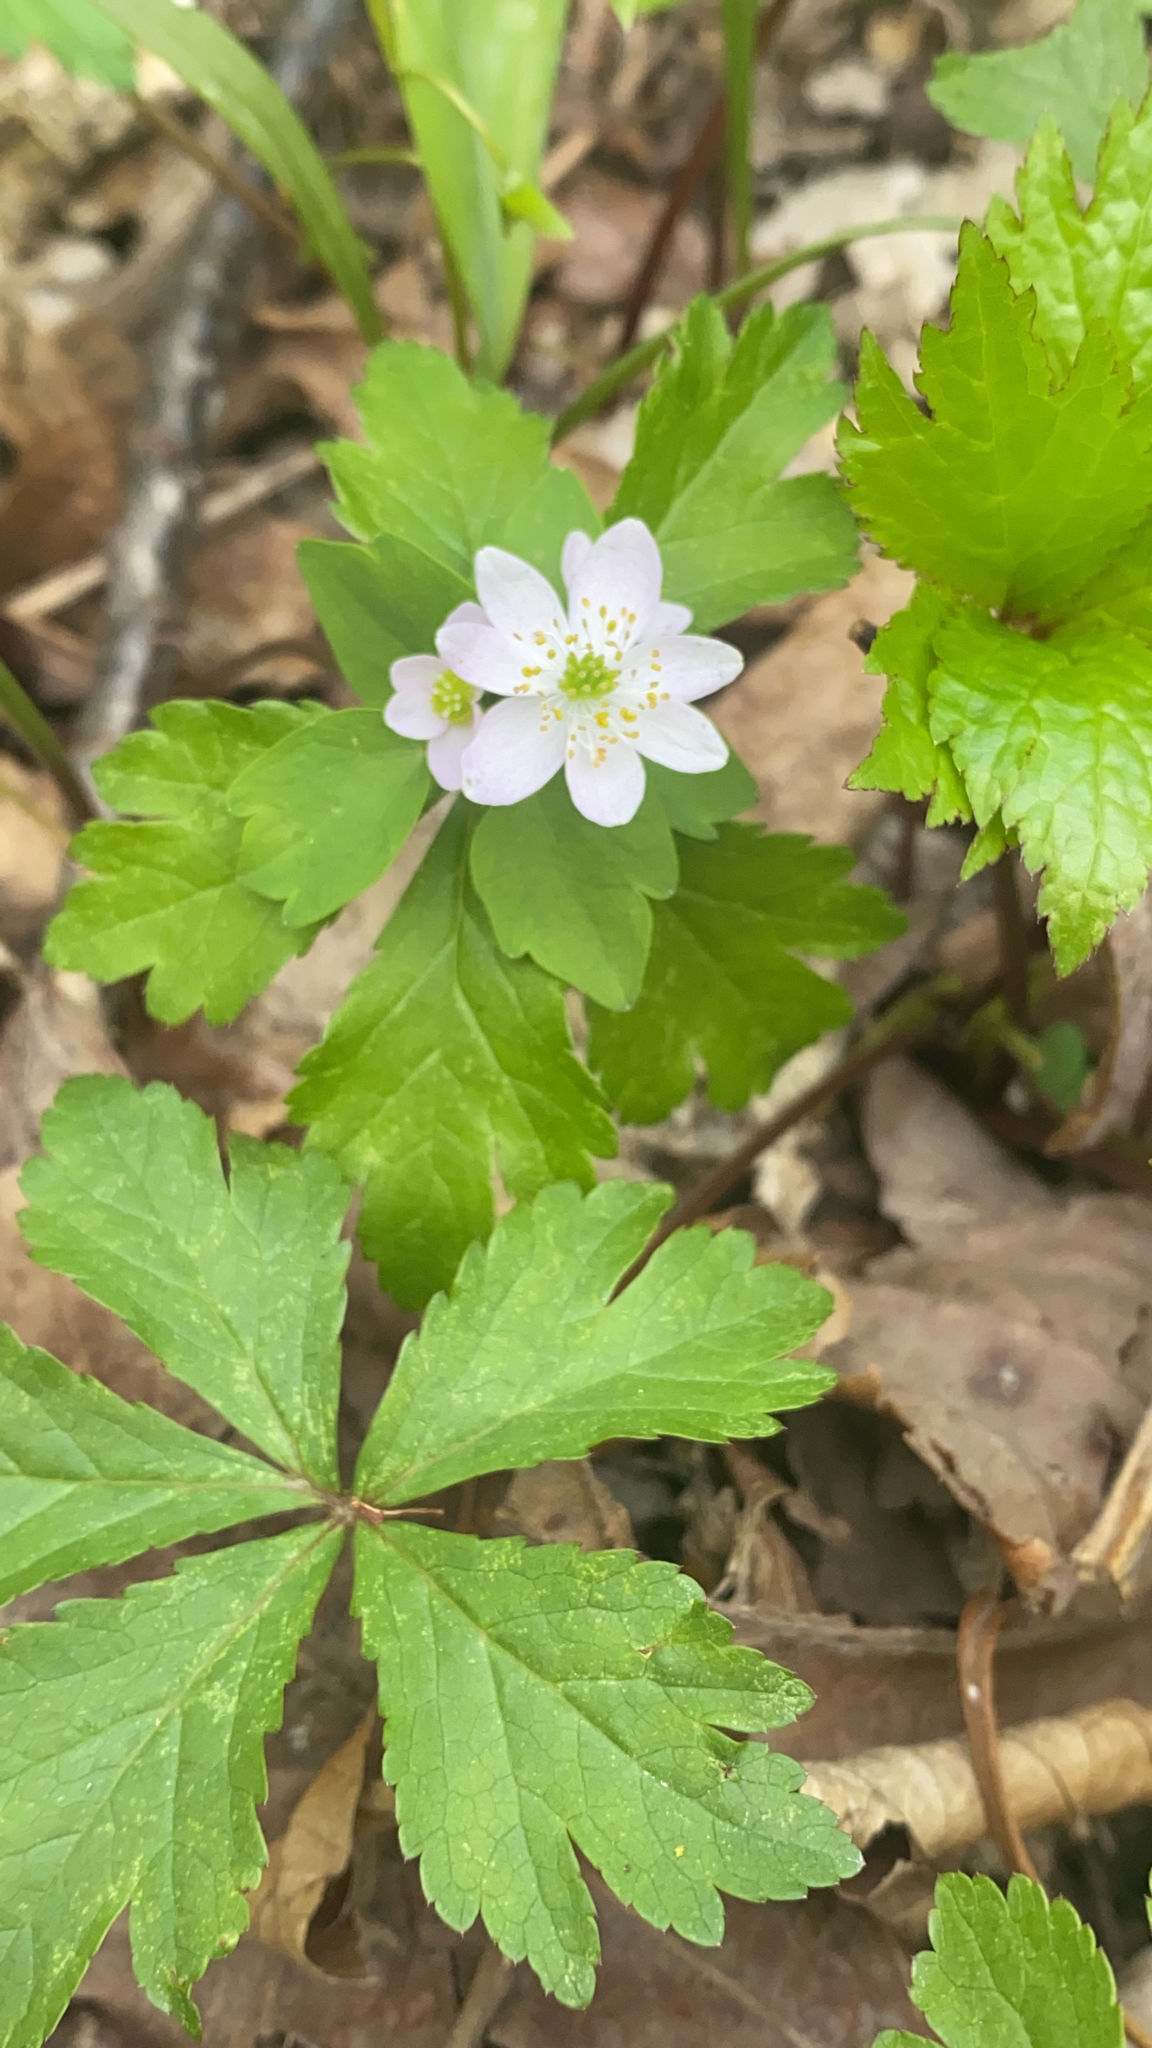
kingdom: Plantae
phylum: Tracheophyta
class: Magnoliopsida
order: Ranunculales
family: Ranunculaceae
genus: Thalictrum
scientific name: Thalictrum thalictroides
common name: Rue-anemone
